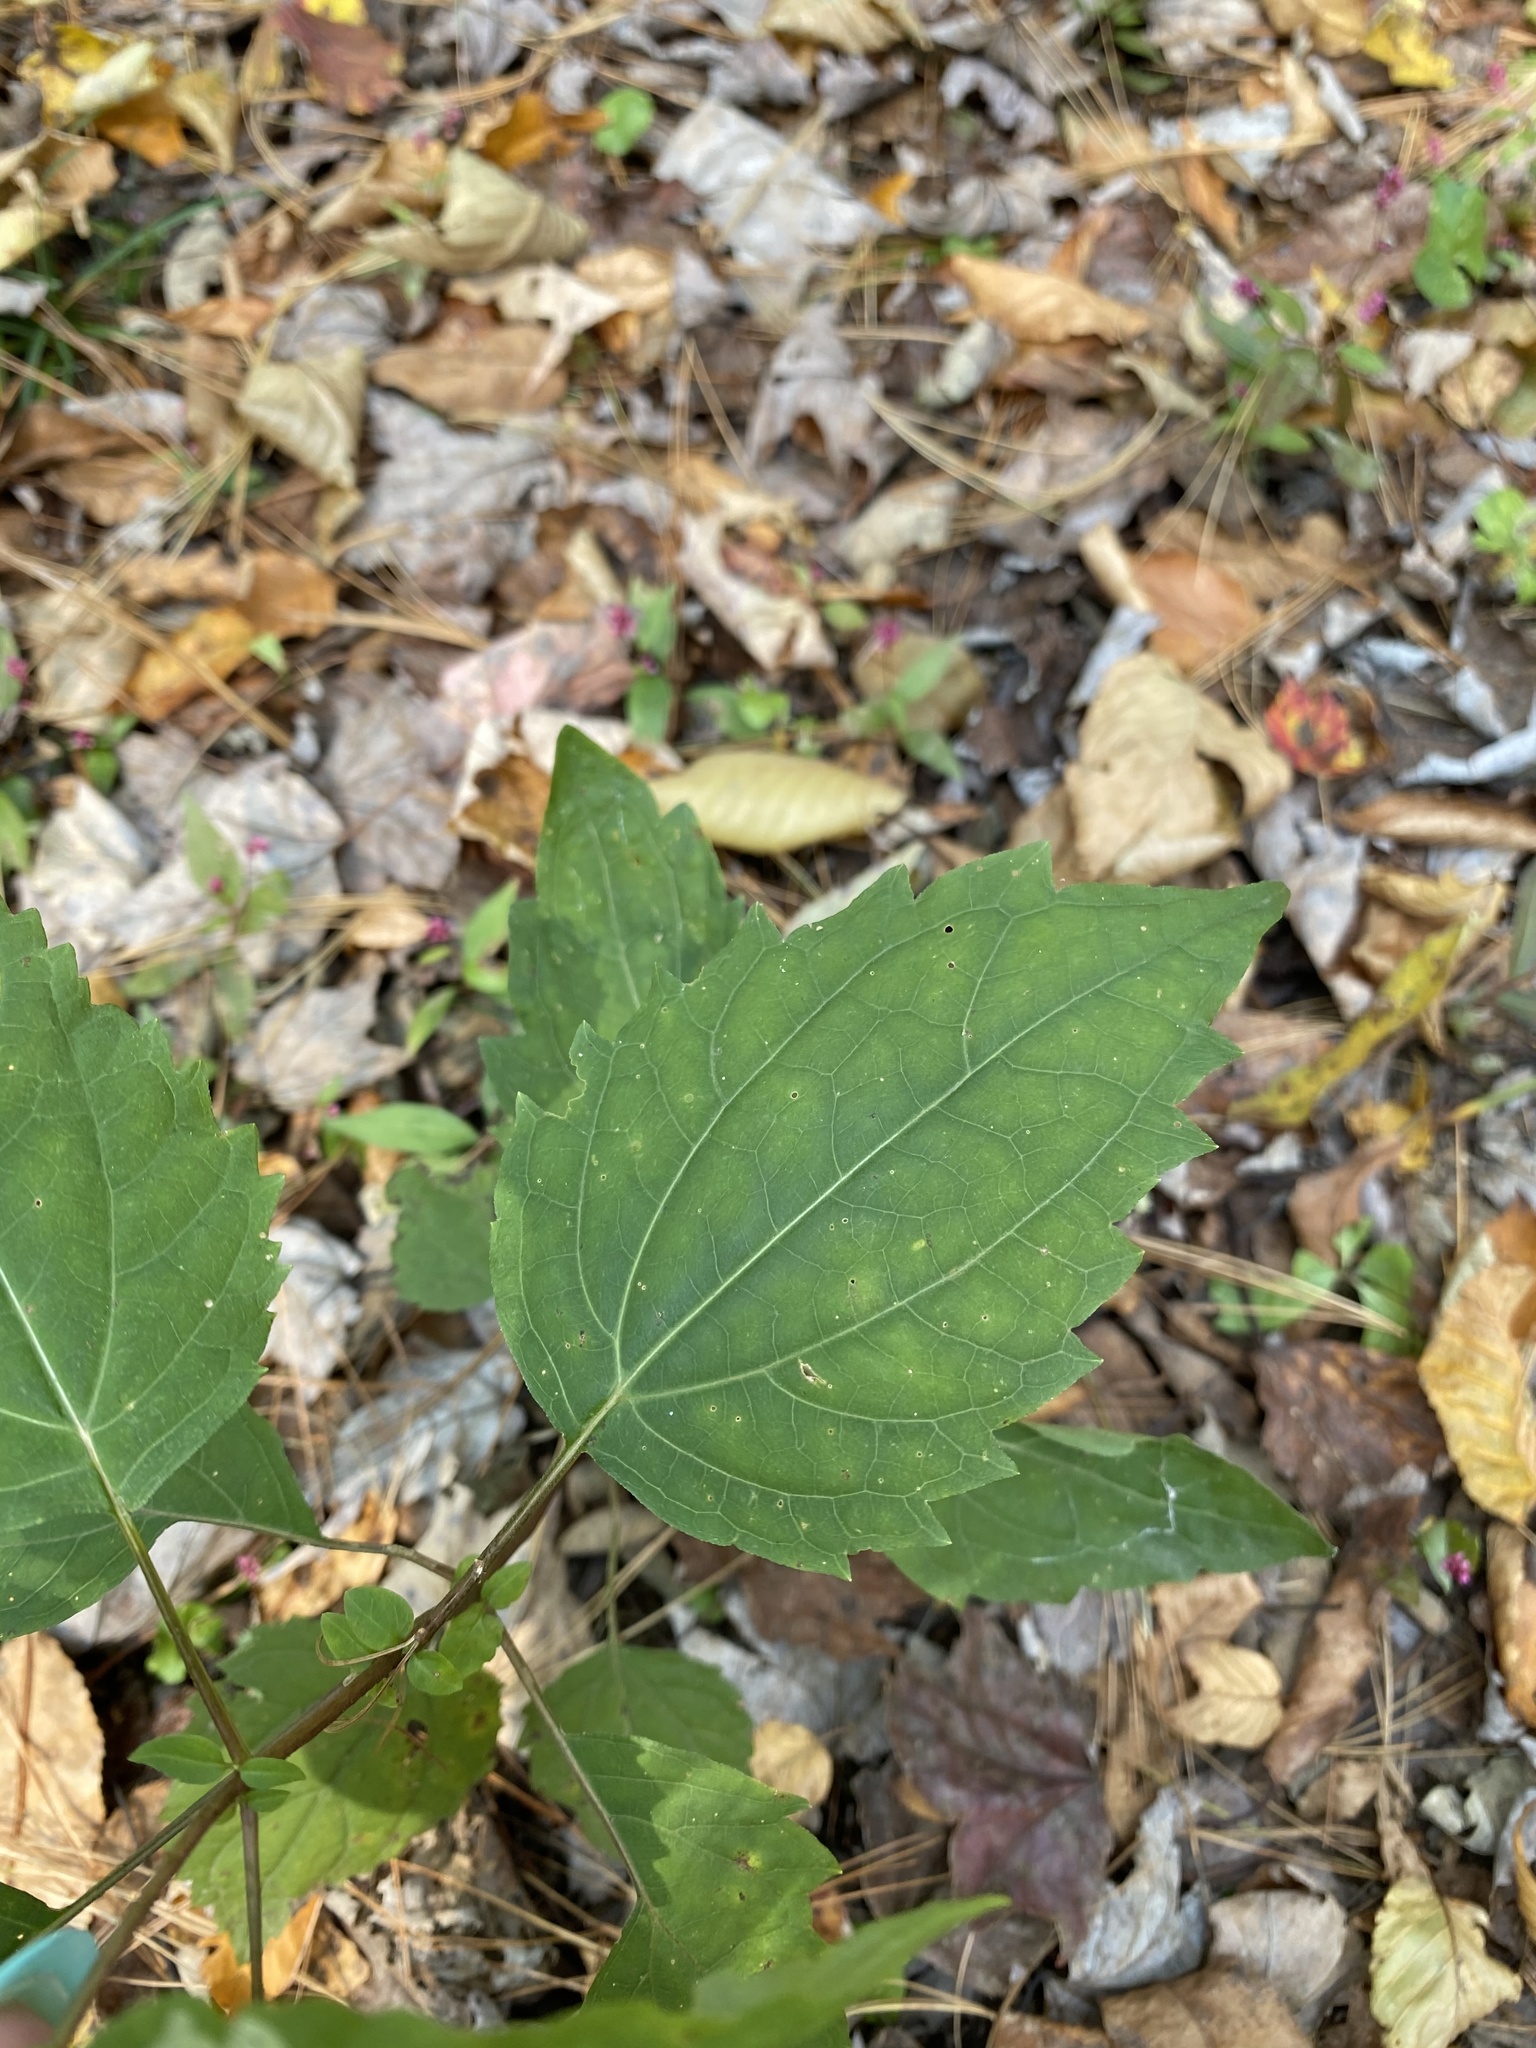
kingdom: Plantae
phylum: Tracheophyta
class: Magnoliopsida
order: Asterales
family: Asteraceae
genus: Ageratina
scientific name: Ageratina altissima
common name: White snakeroot
